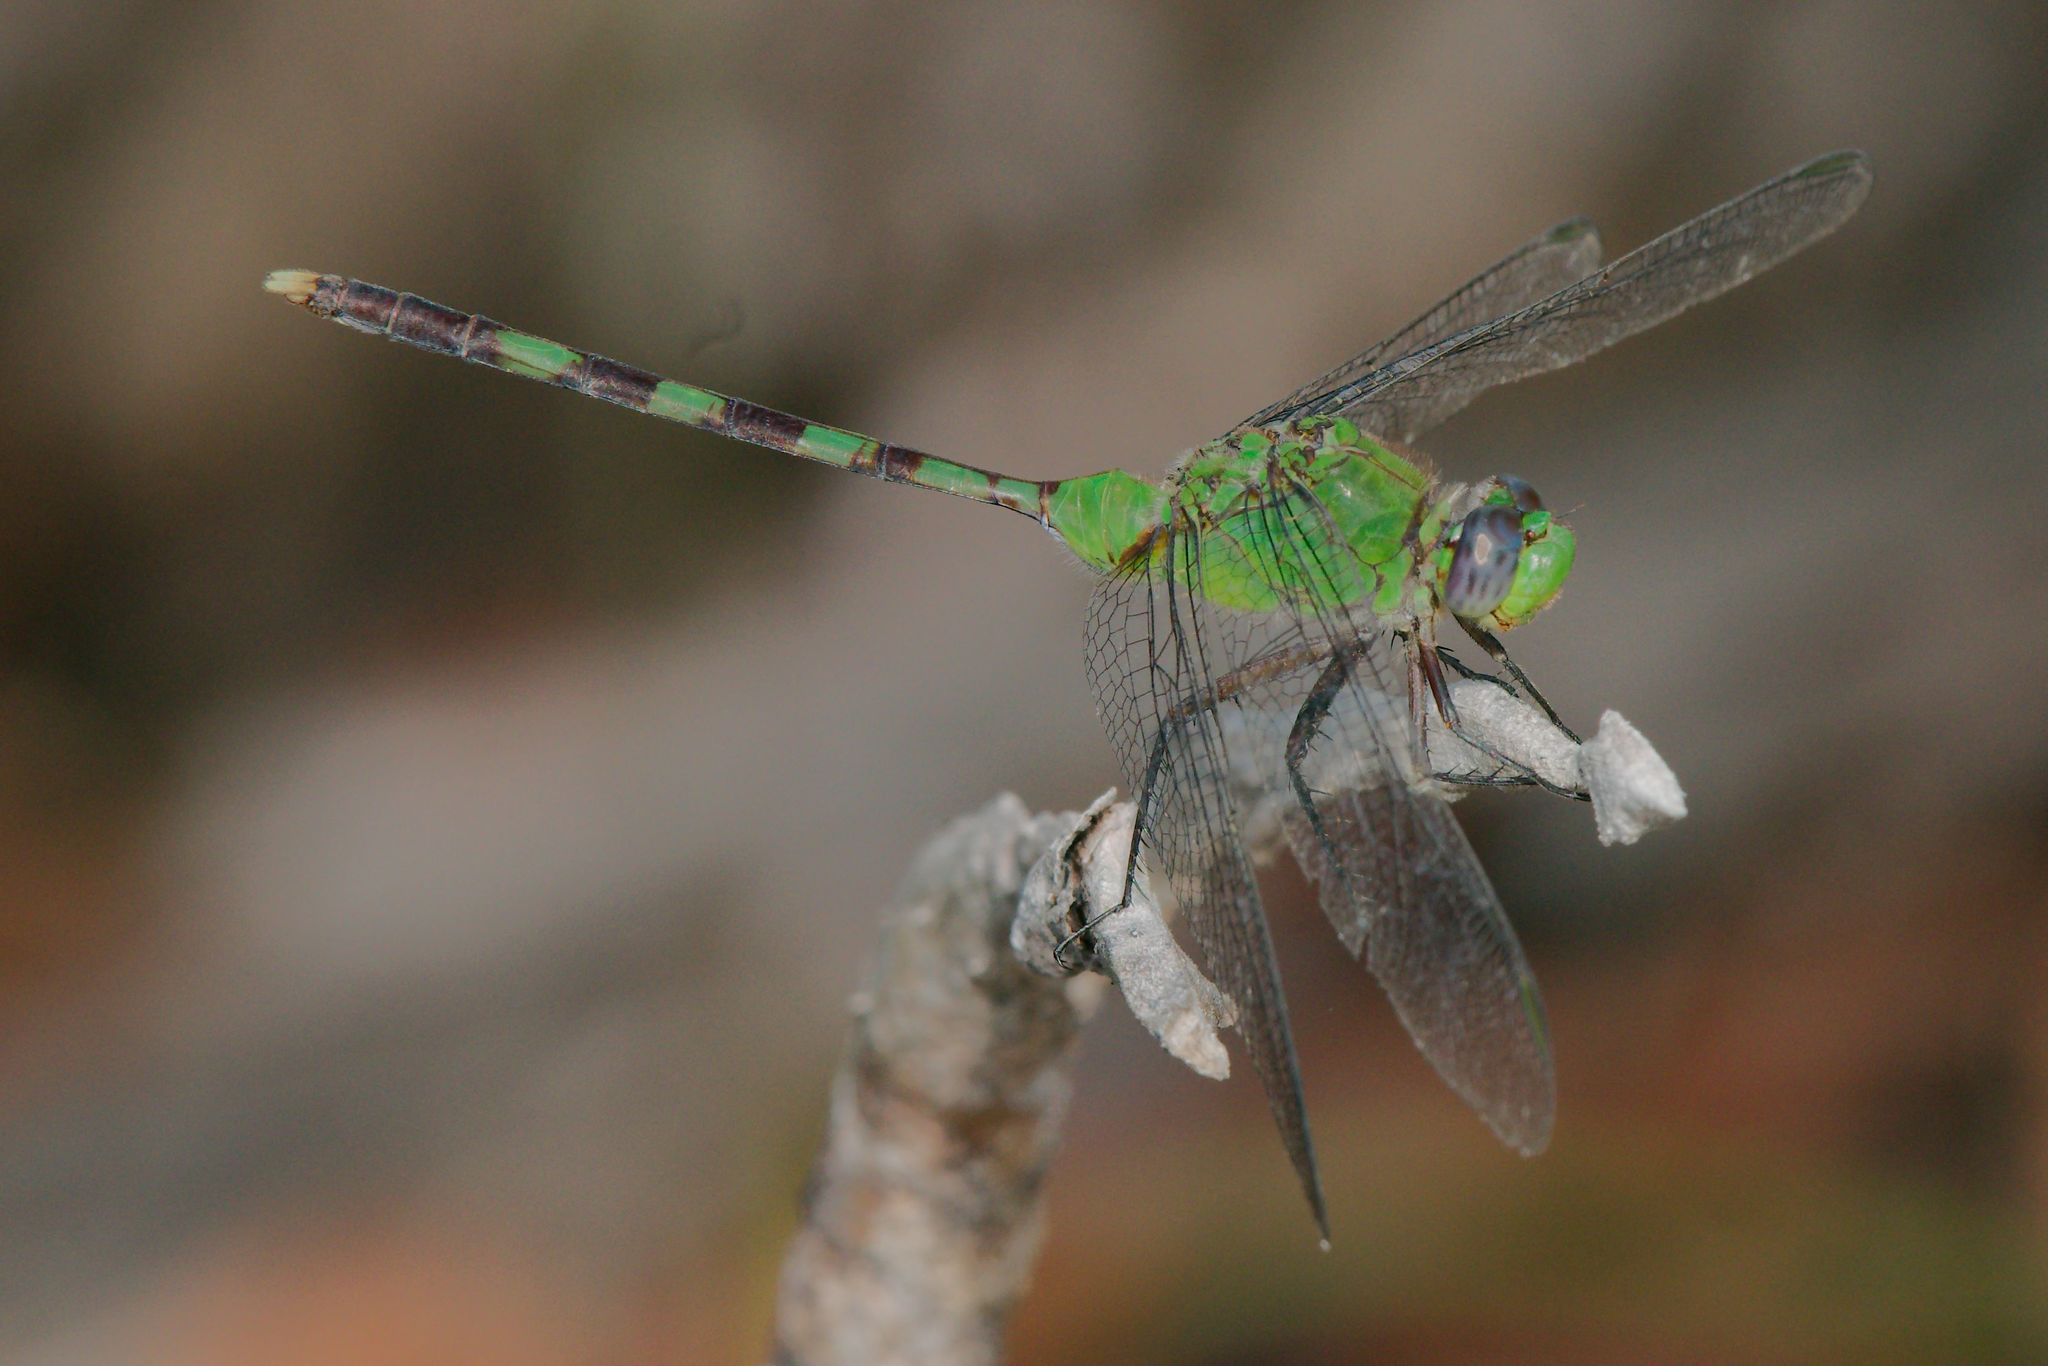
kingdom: Animalia
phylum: Arthropoda
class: Insecta
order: Odonata
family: Libellulidae
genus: Erythemis
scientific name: Erythemis vesiculosa
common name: Great pondhawk
